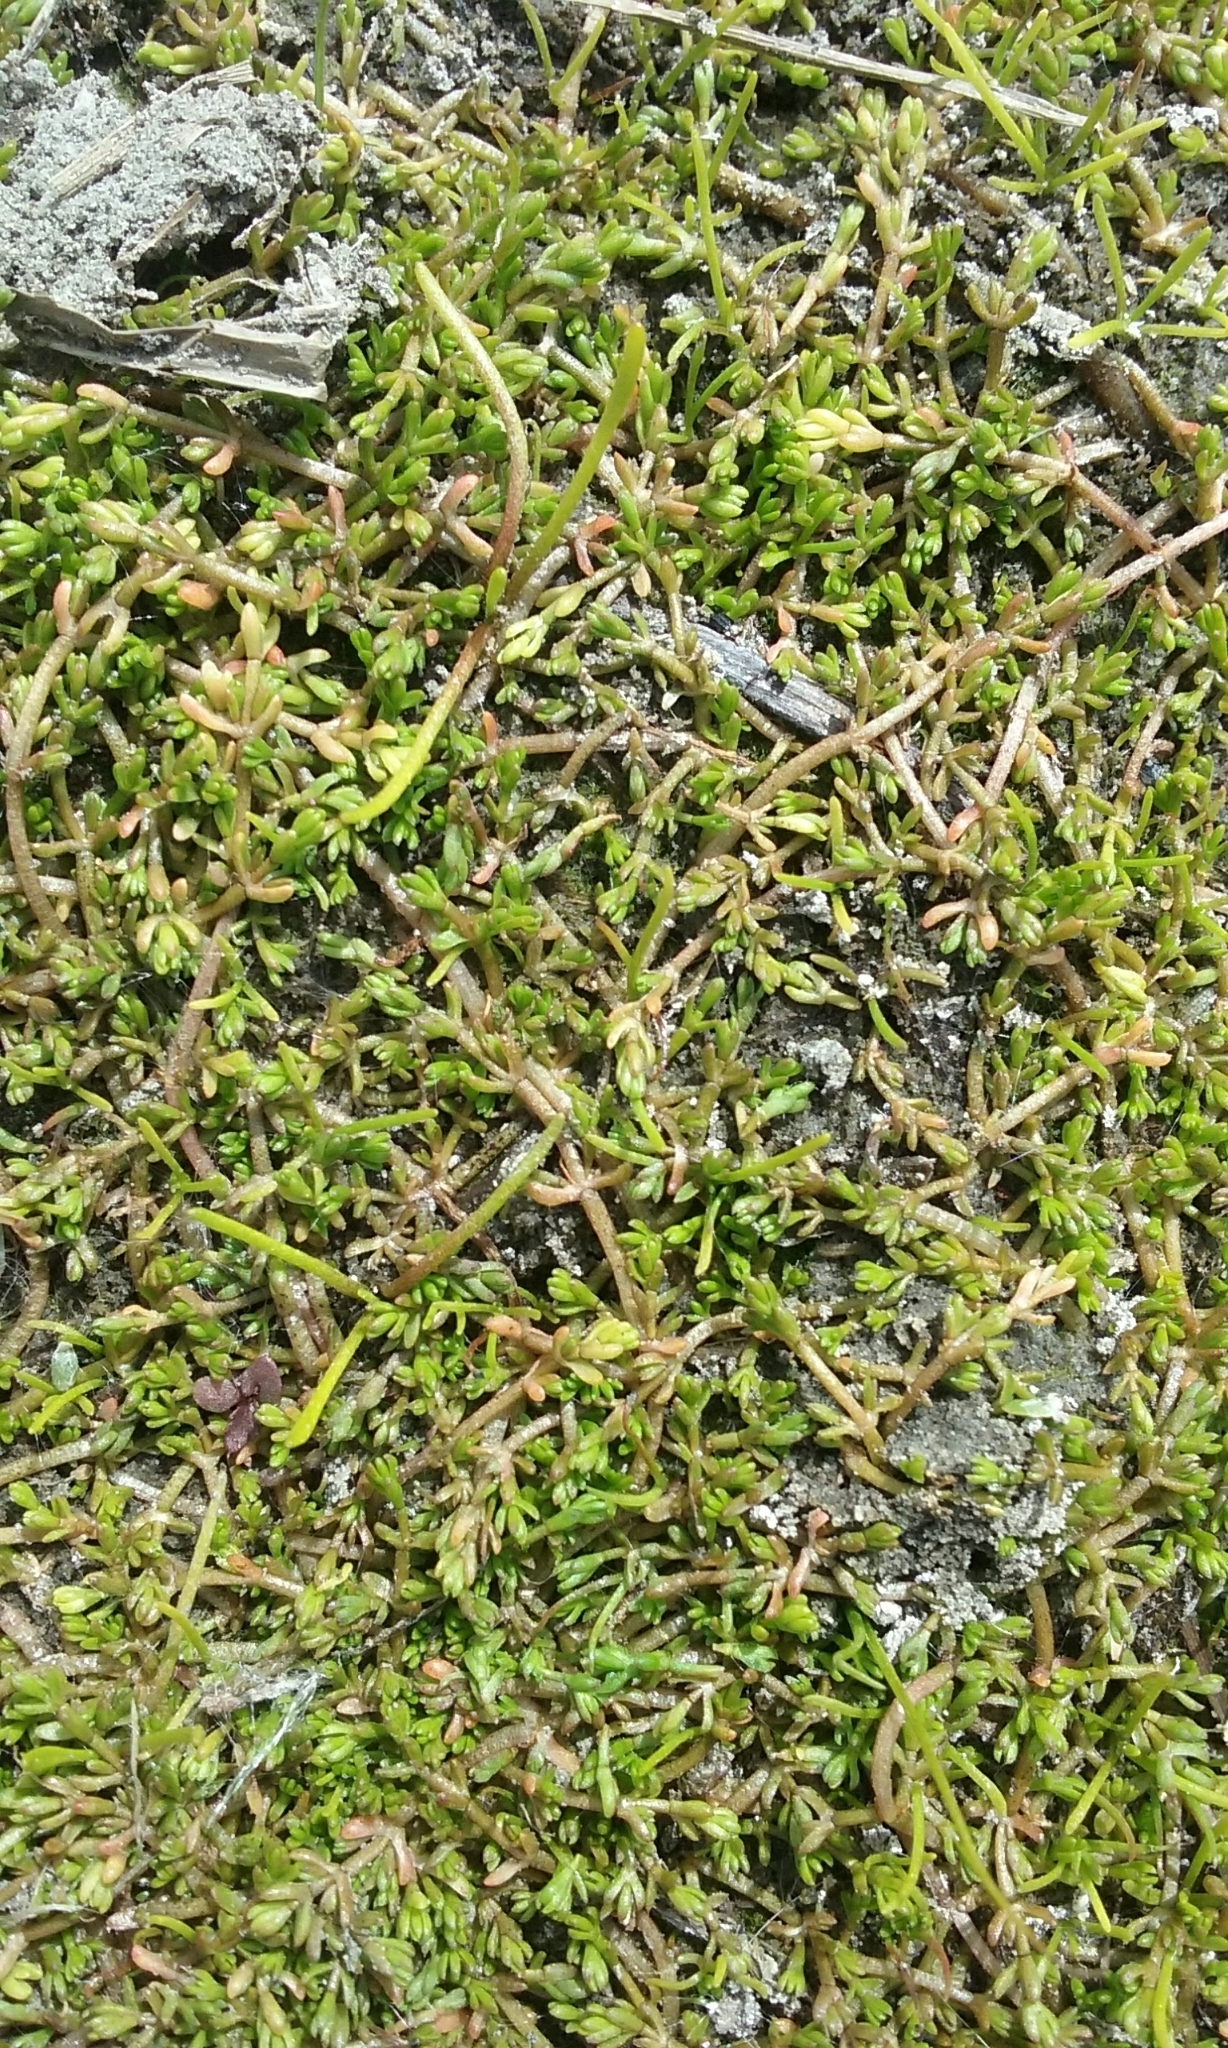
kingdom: Plantae
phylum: Tracheophyta
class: Magnoliopsida
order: Saxifragales
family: Crassulaceae
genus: Crassula
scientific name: Crassula sinclairii
